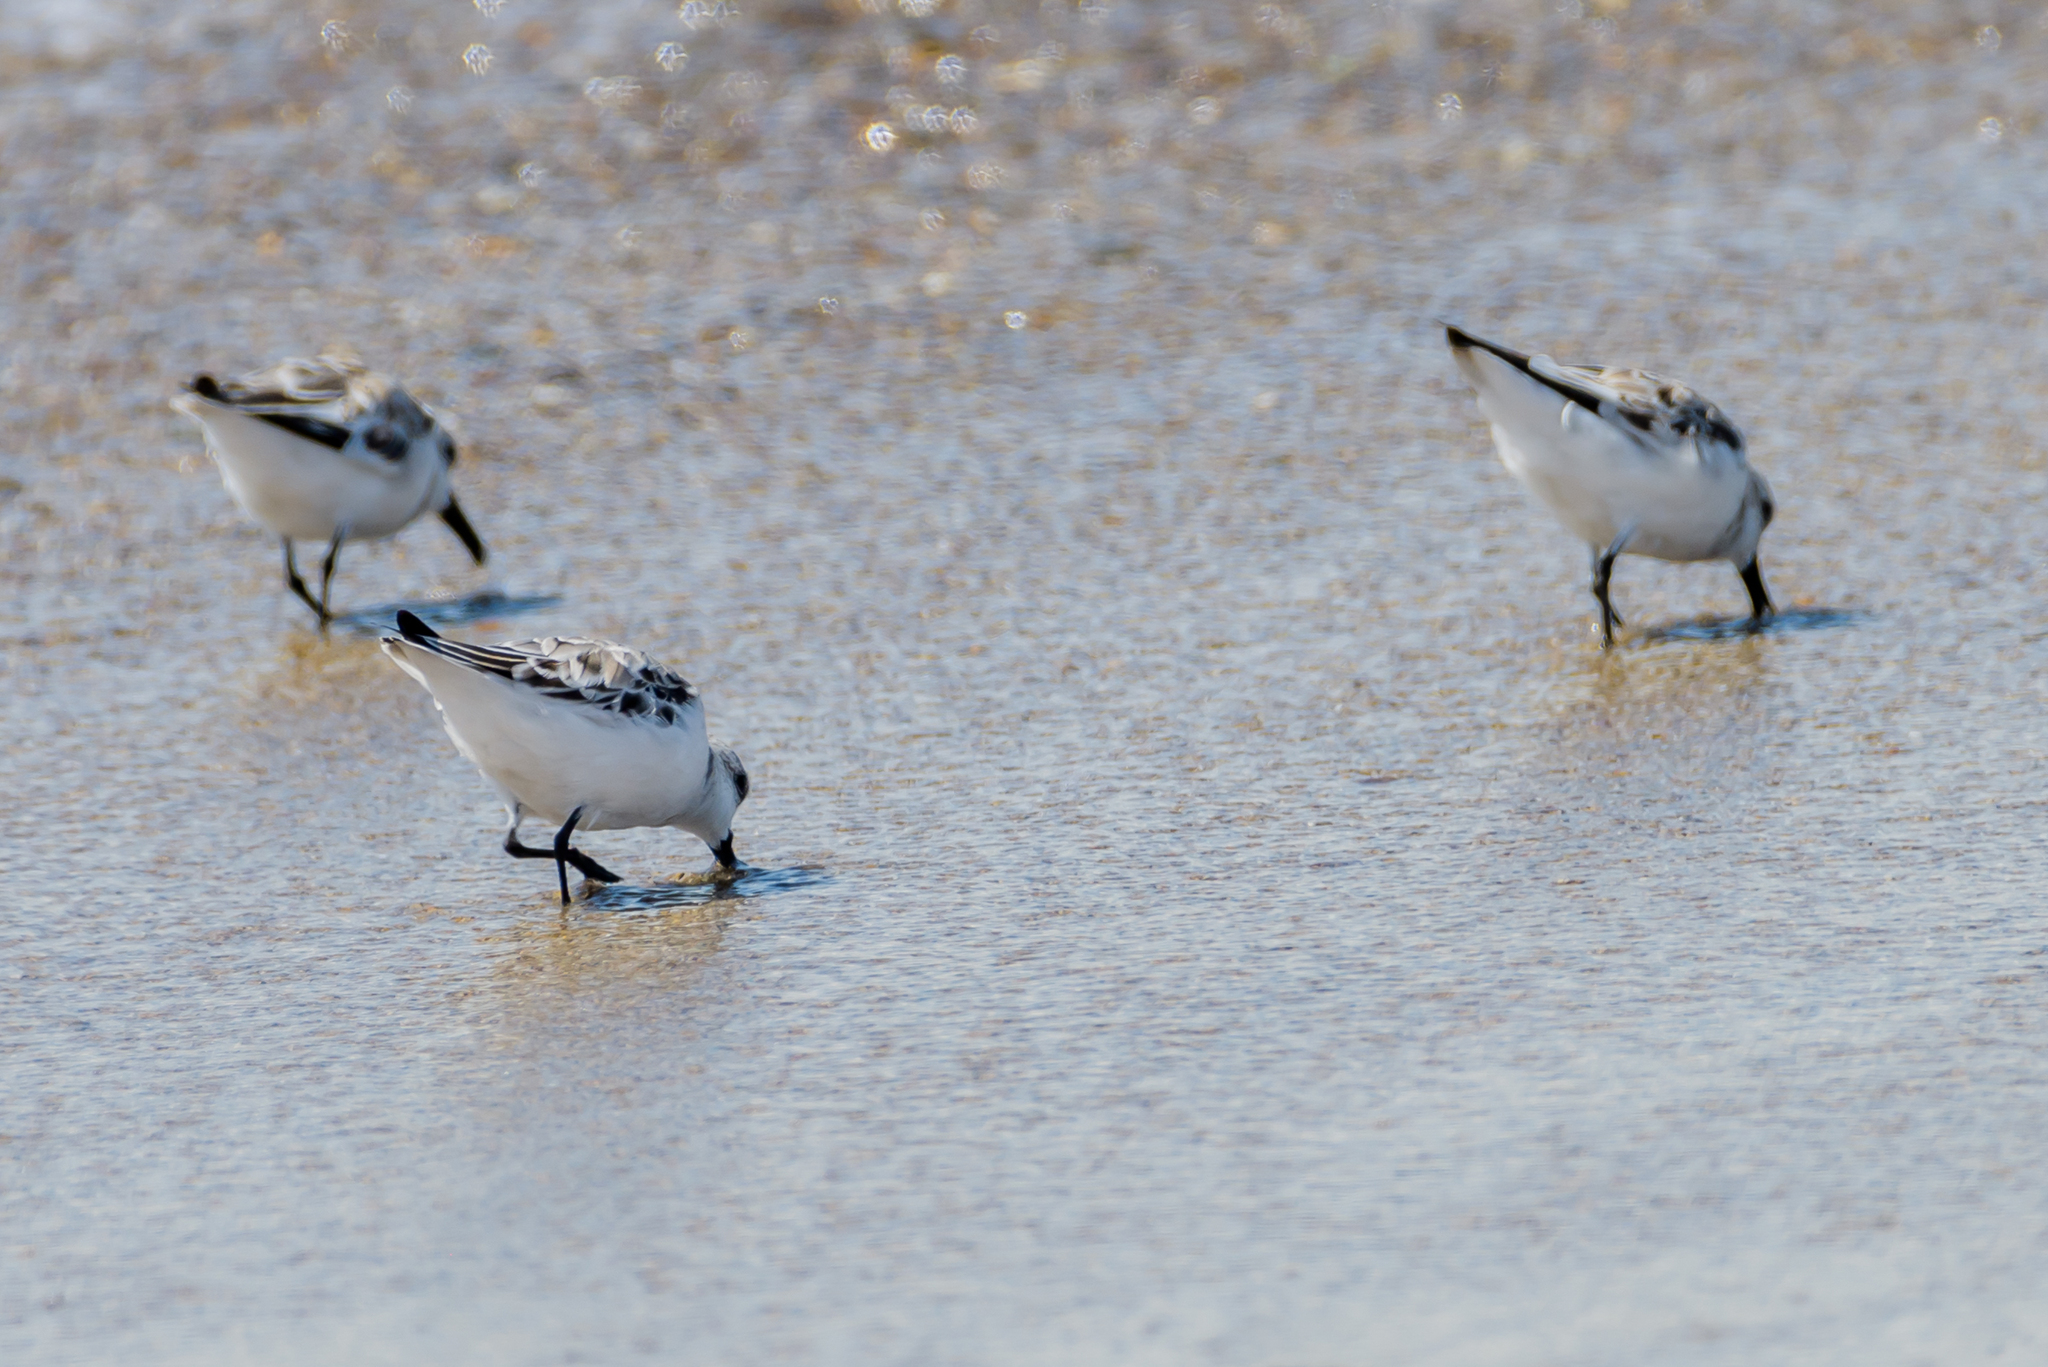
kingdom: Animalia
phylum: Chordata
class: Aves
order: Charadriiformes
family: Scolopacidae
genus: Calidris
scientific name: Calidris alba
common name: Sanderling
